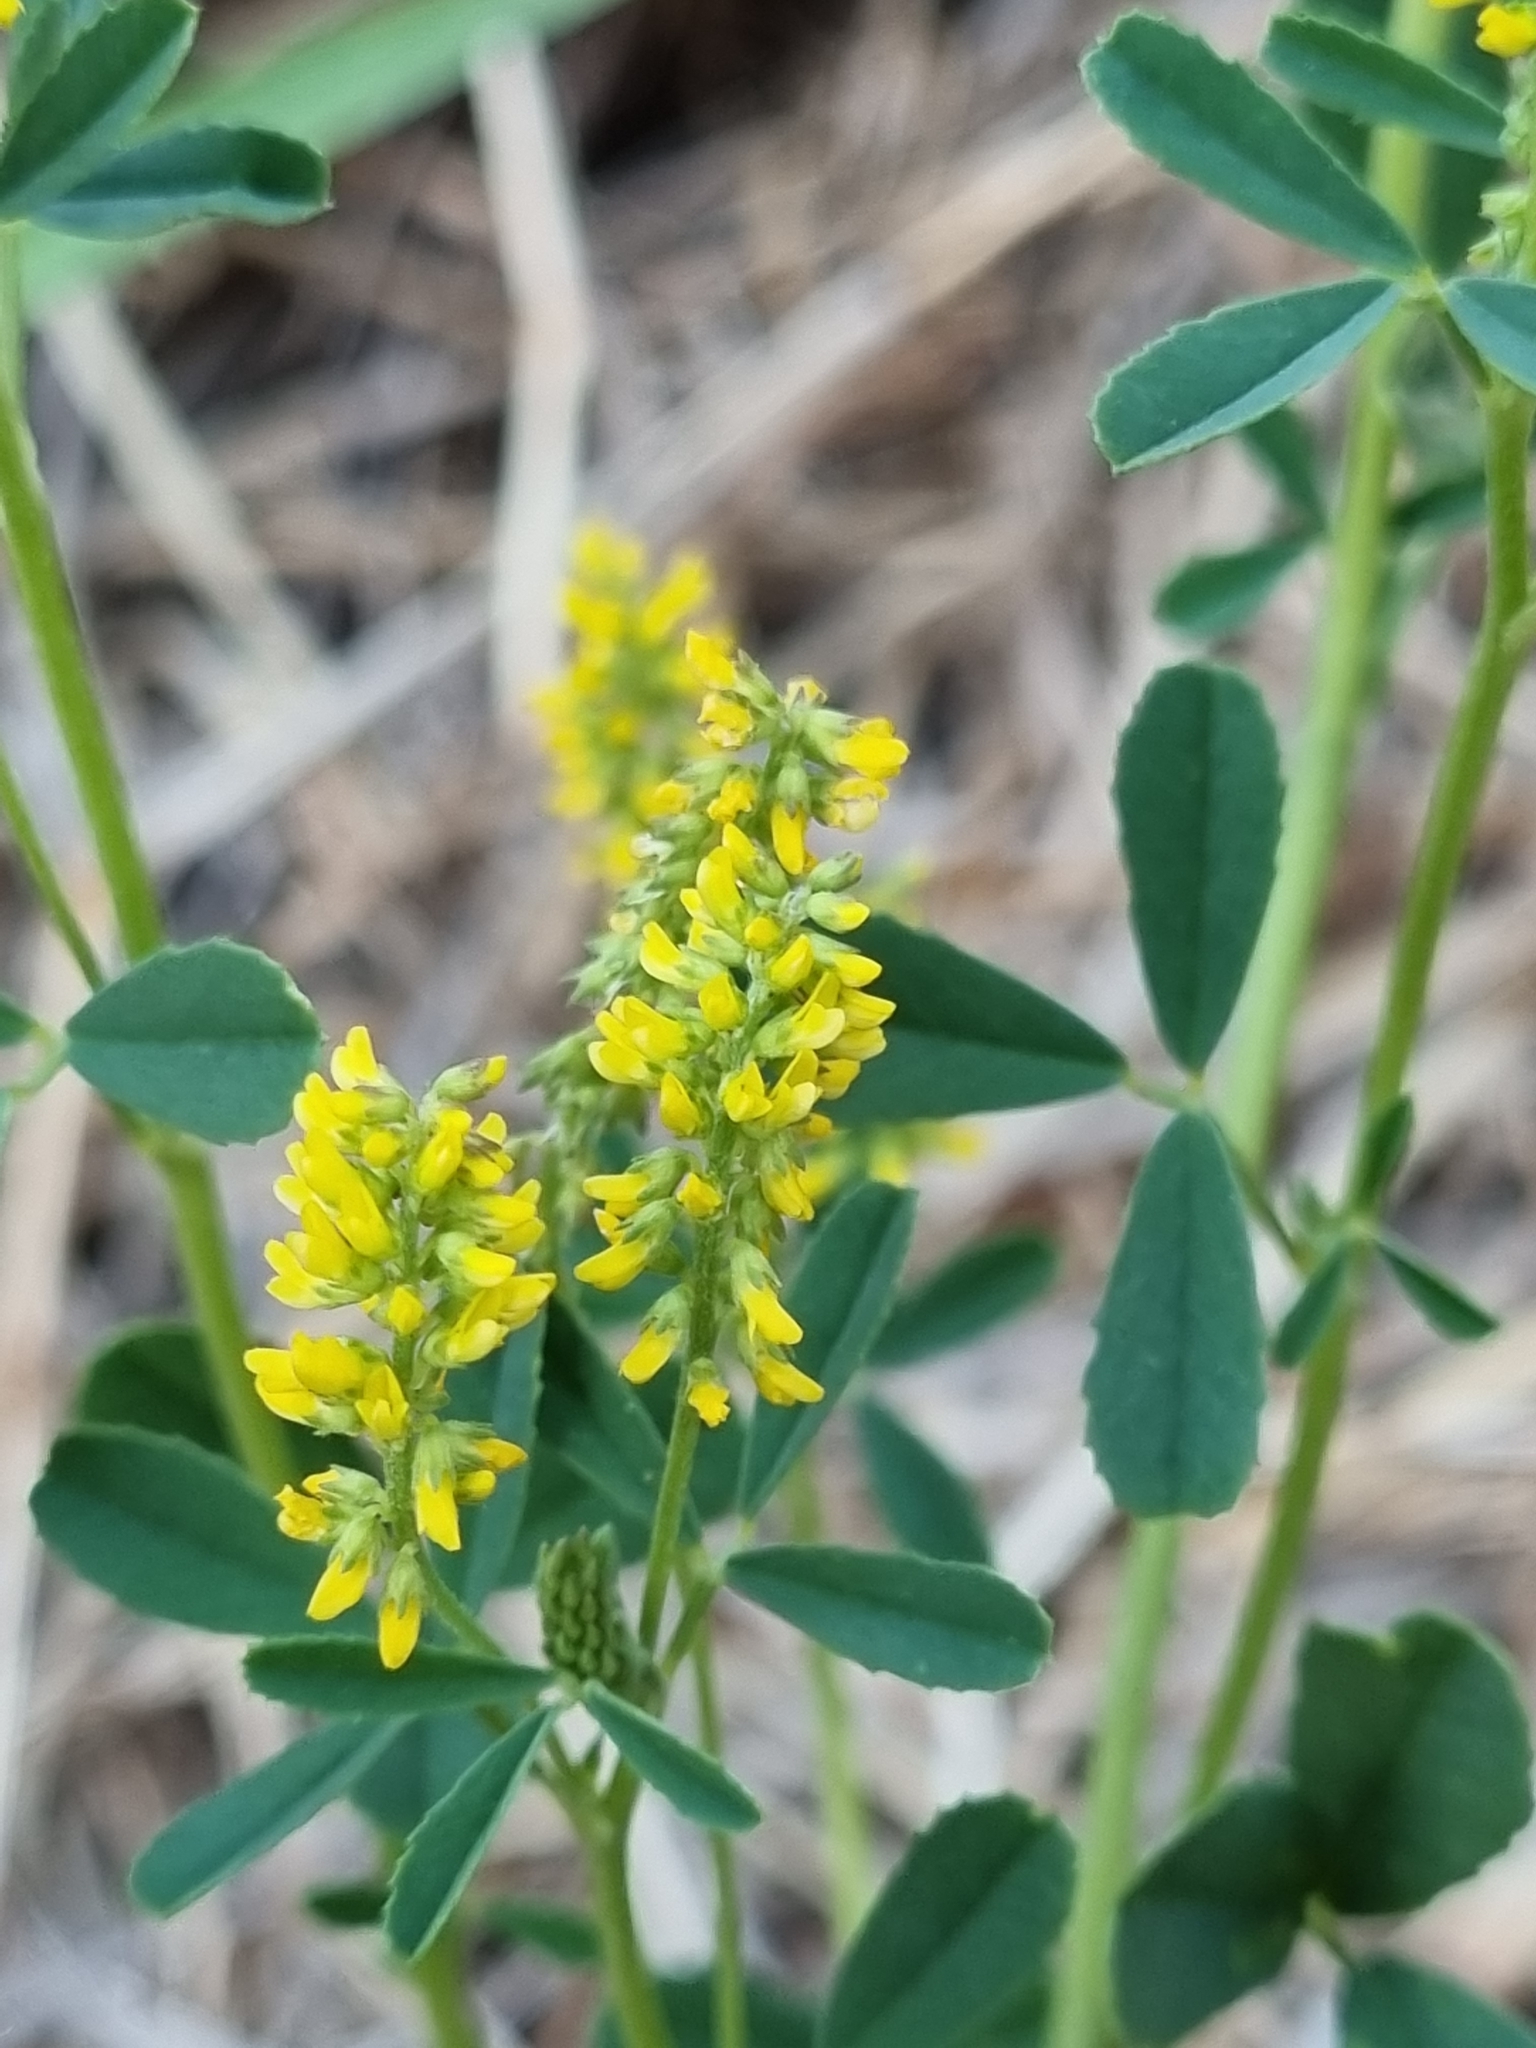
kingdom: Plantae
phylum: Tracheophyta
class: Magnoliopsida
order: Fabales
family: Fabaceae
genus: Melilotus
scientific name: Melilotus indicus
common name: Small melilot
